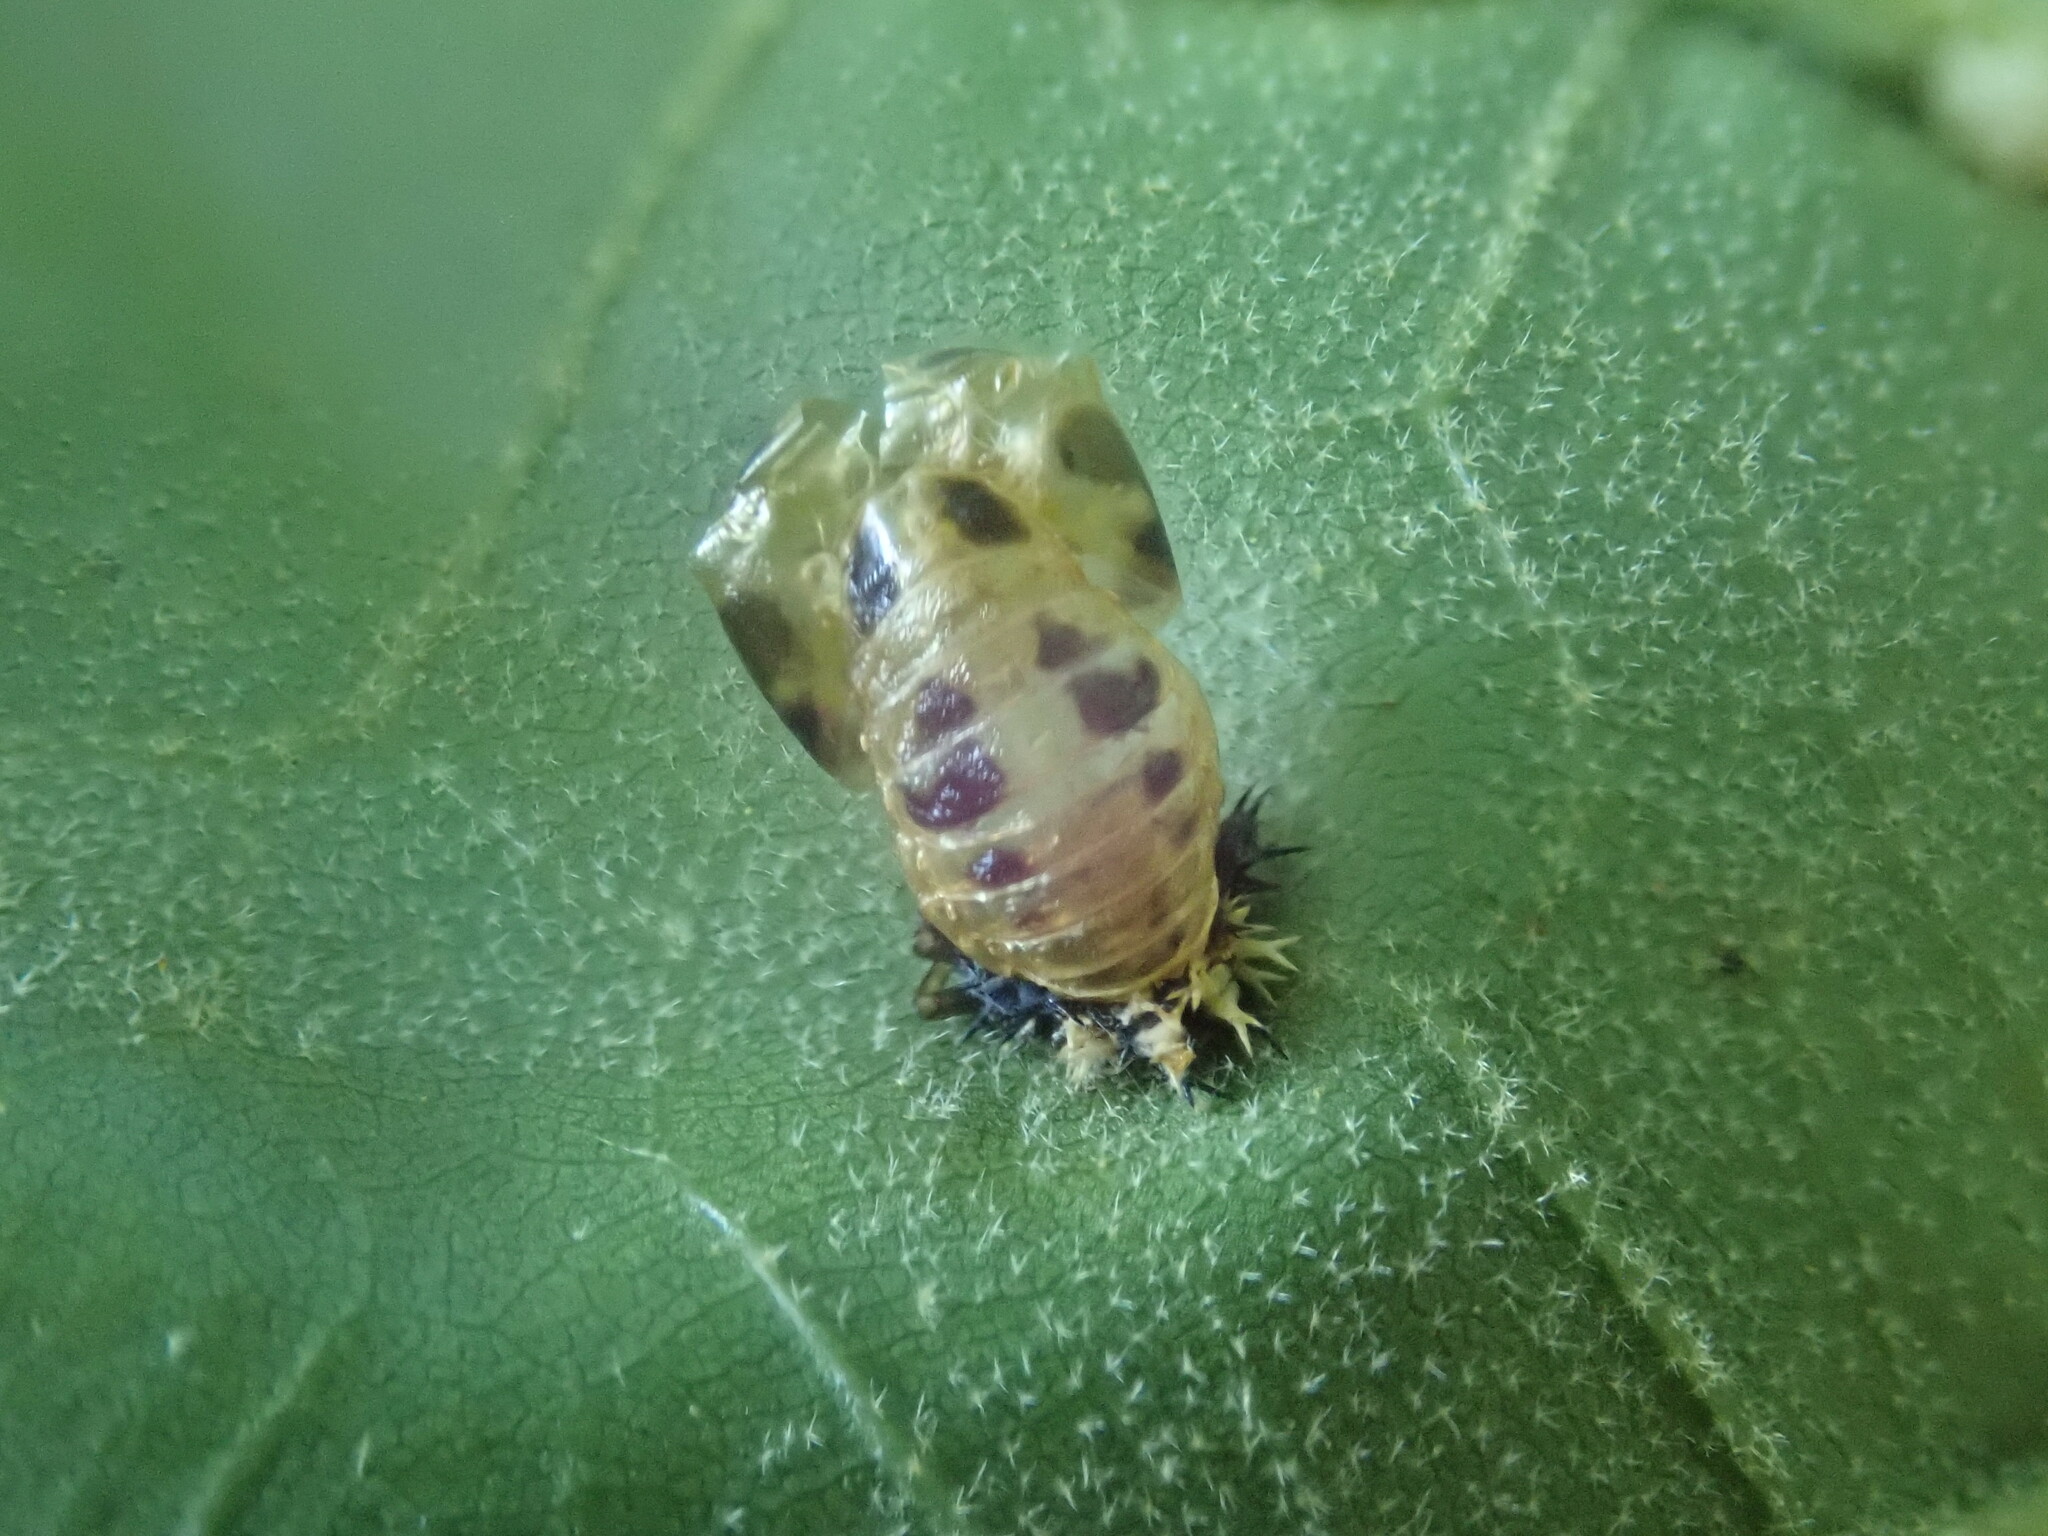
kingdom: Animalia
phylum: Arthropoda
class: Insecta
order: Coleoptera
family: Coccinellidae
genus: Harmonia
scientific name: Harmonia axyridis
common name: Harlequin ladybird
